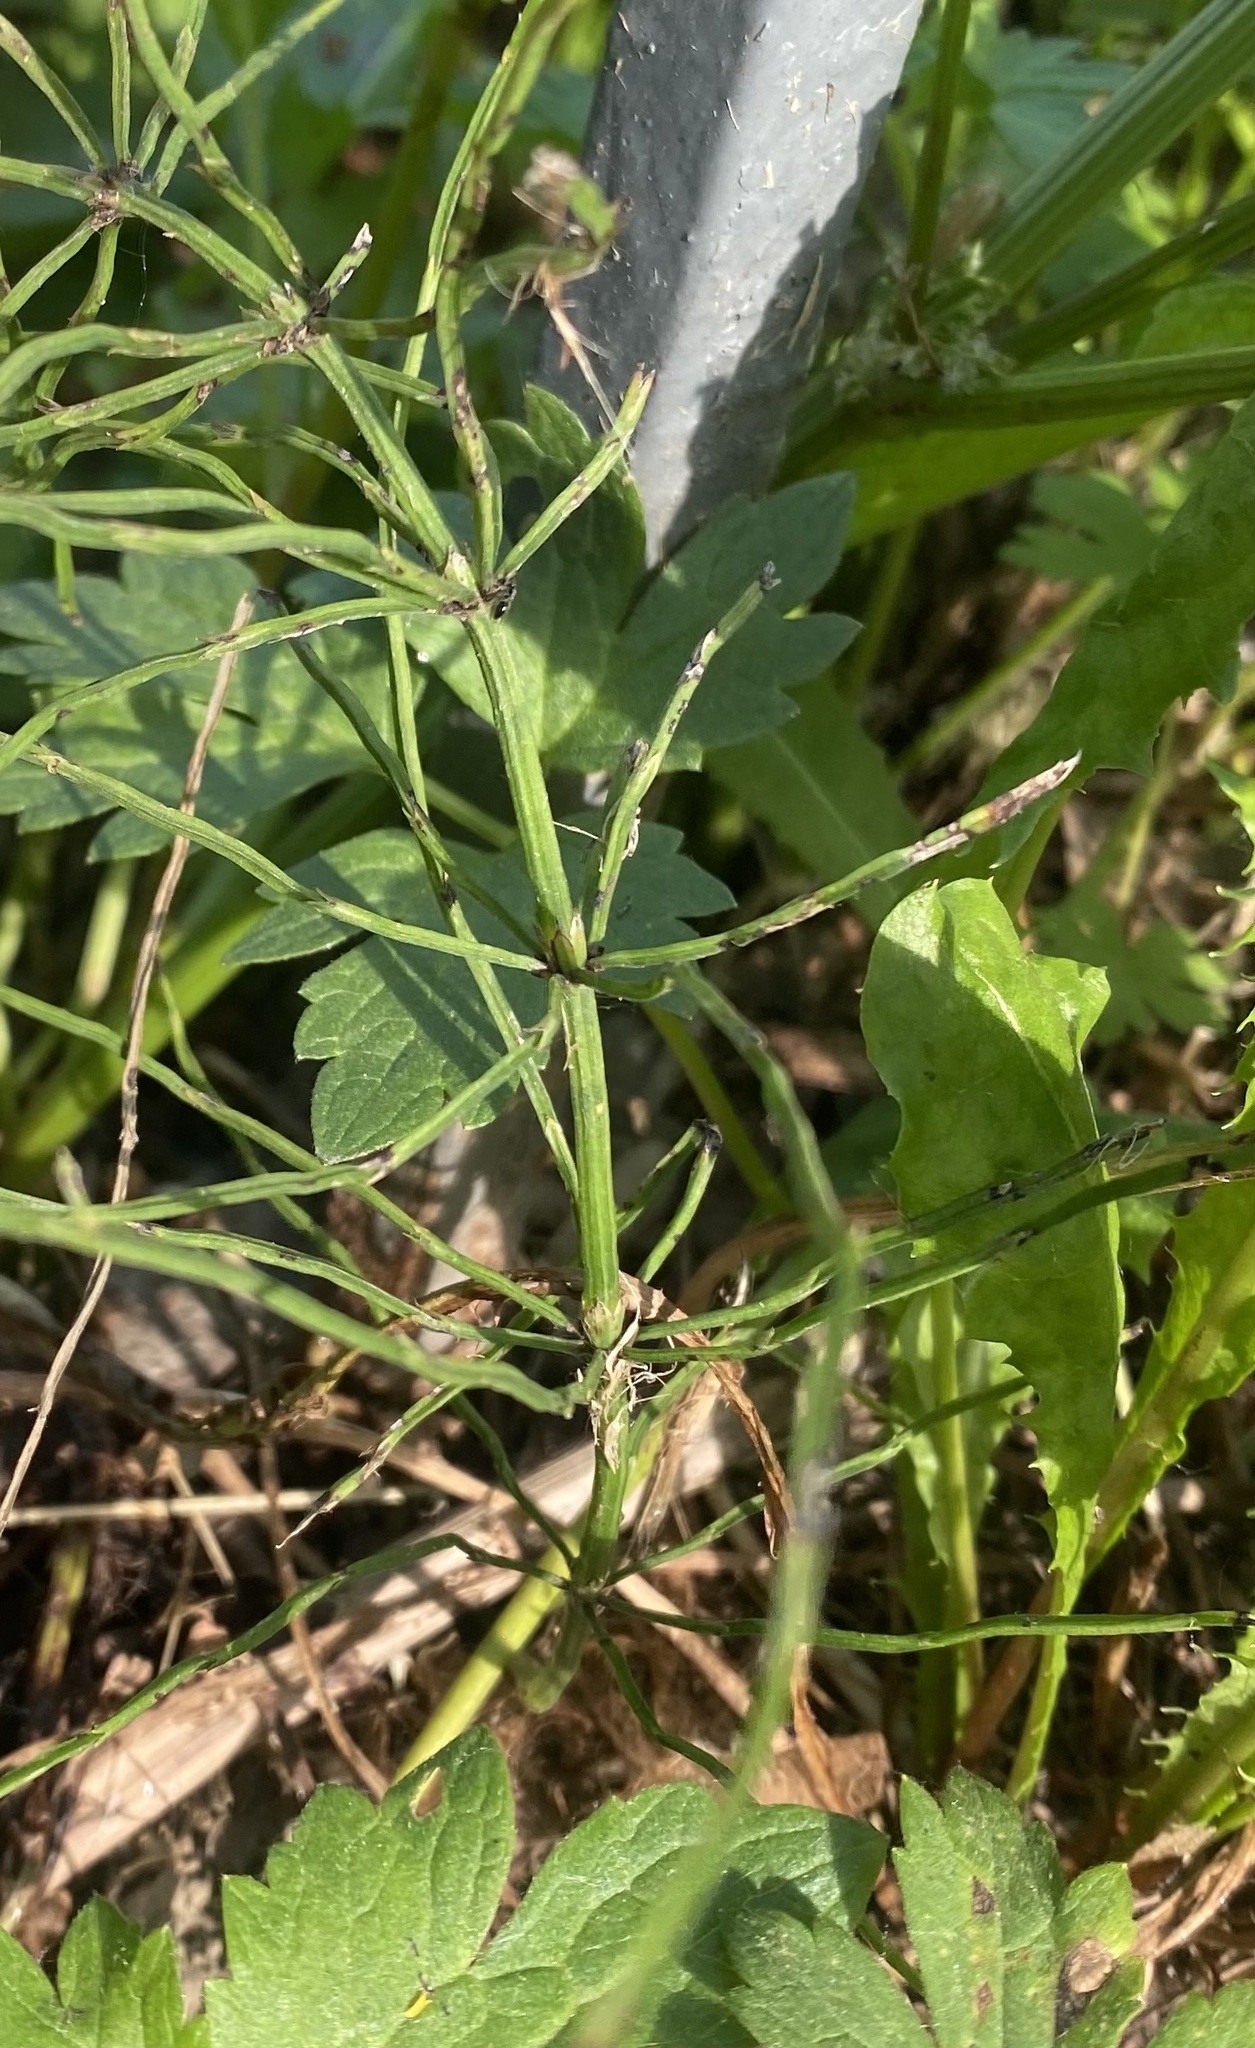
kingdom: Plantae
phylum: Tracheophyta
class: Polypodiopsida
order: Equisetales
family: Equisetaceae
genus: Equisetum
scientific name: Equisetum arvense
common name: Field horsetail
